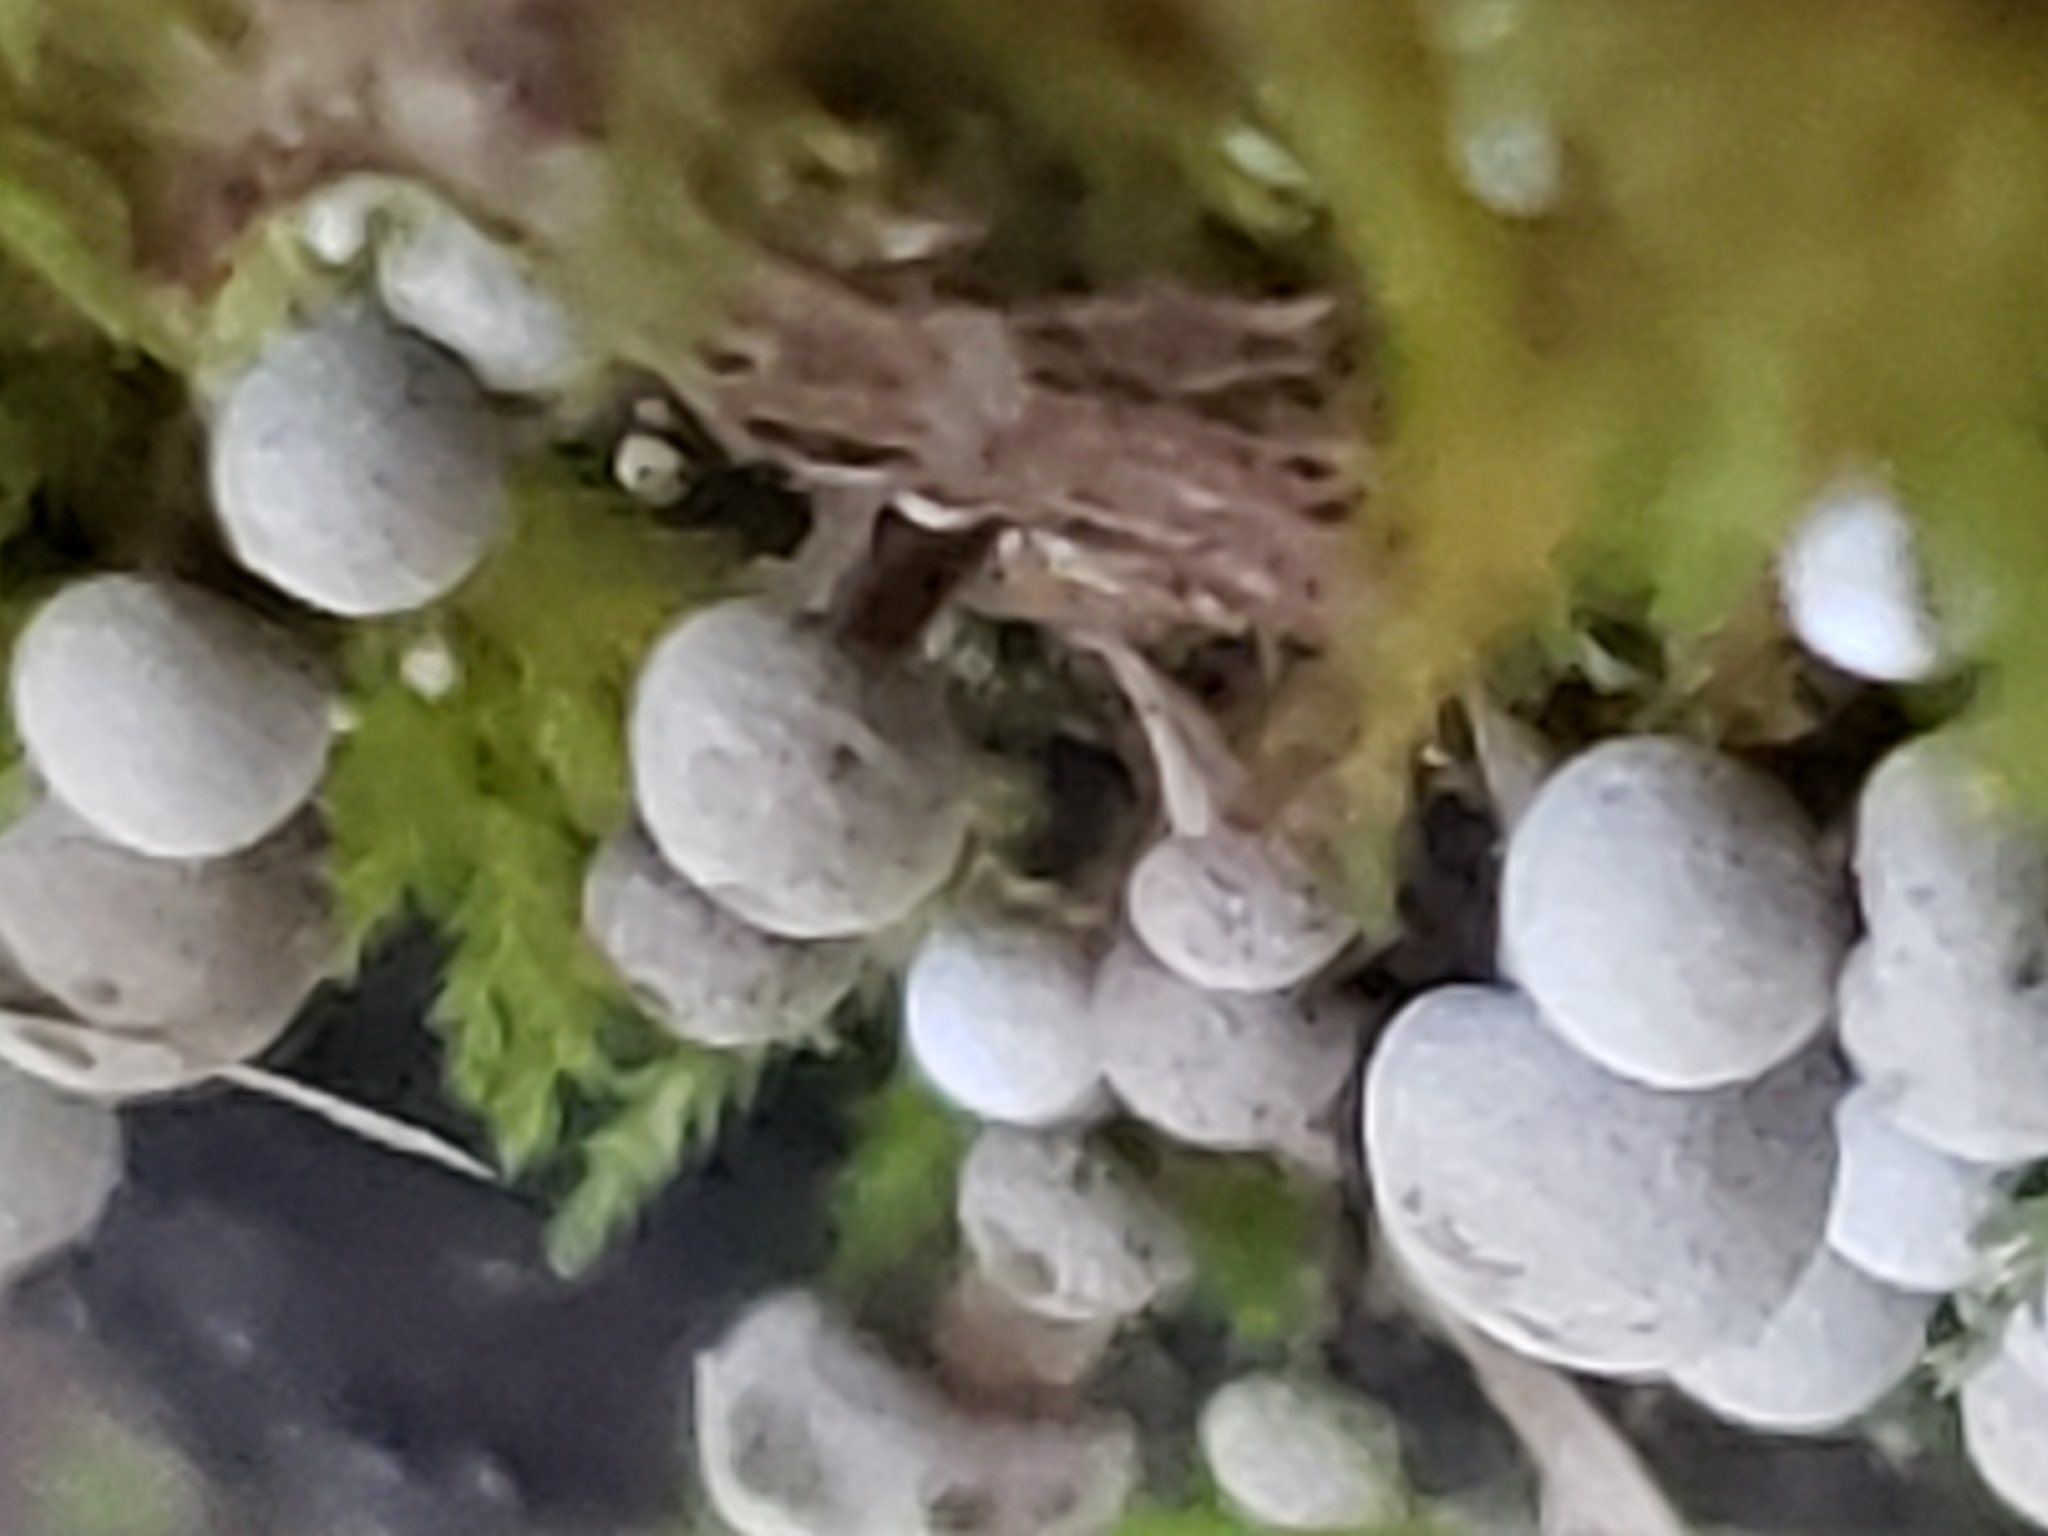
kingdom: Fungi
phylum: Basidiomycota
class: Atractiellomycetes
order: Atractiellales
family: Phleogenaceae
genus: Phleogena
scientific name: Phleogena faginea
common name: Fenugreek stalkball
